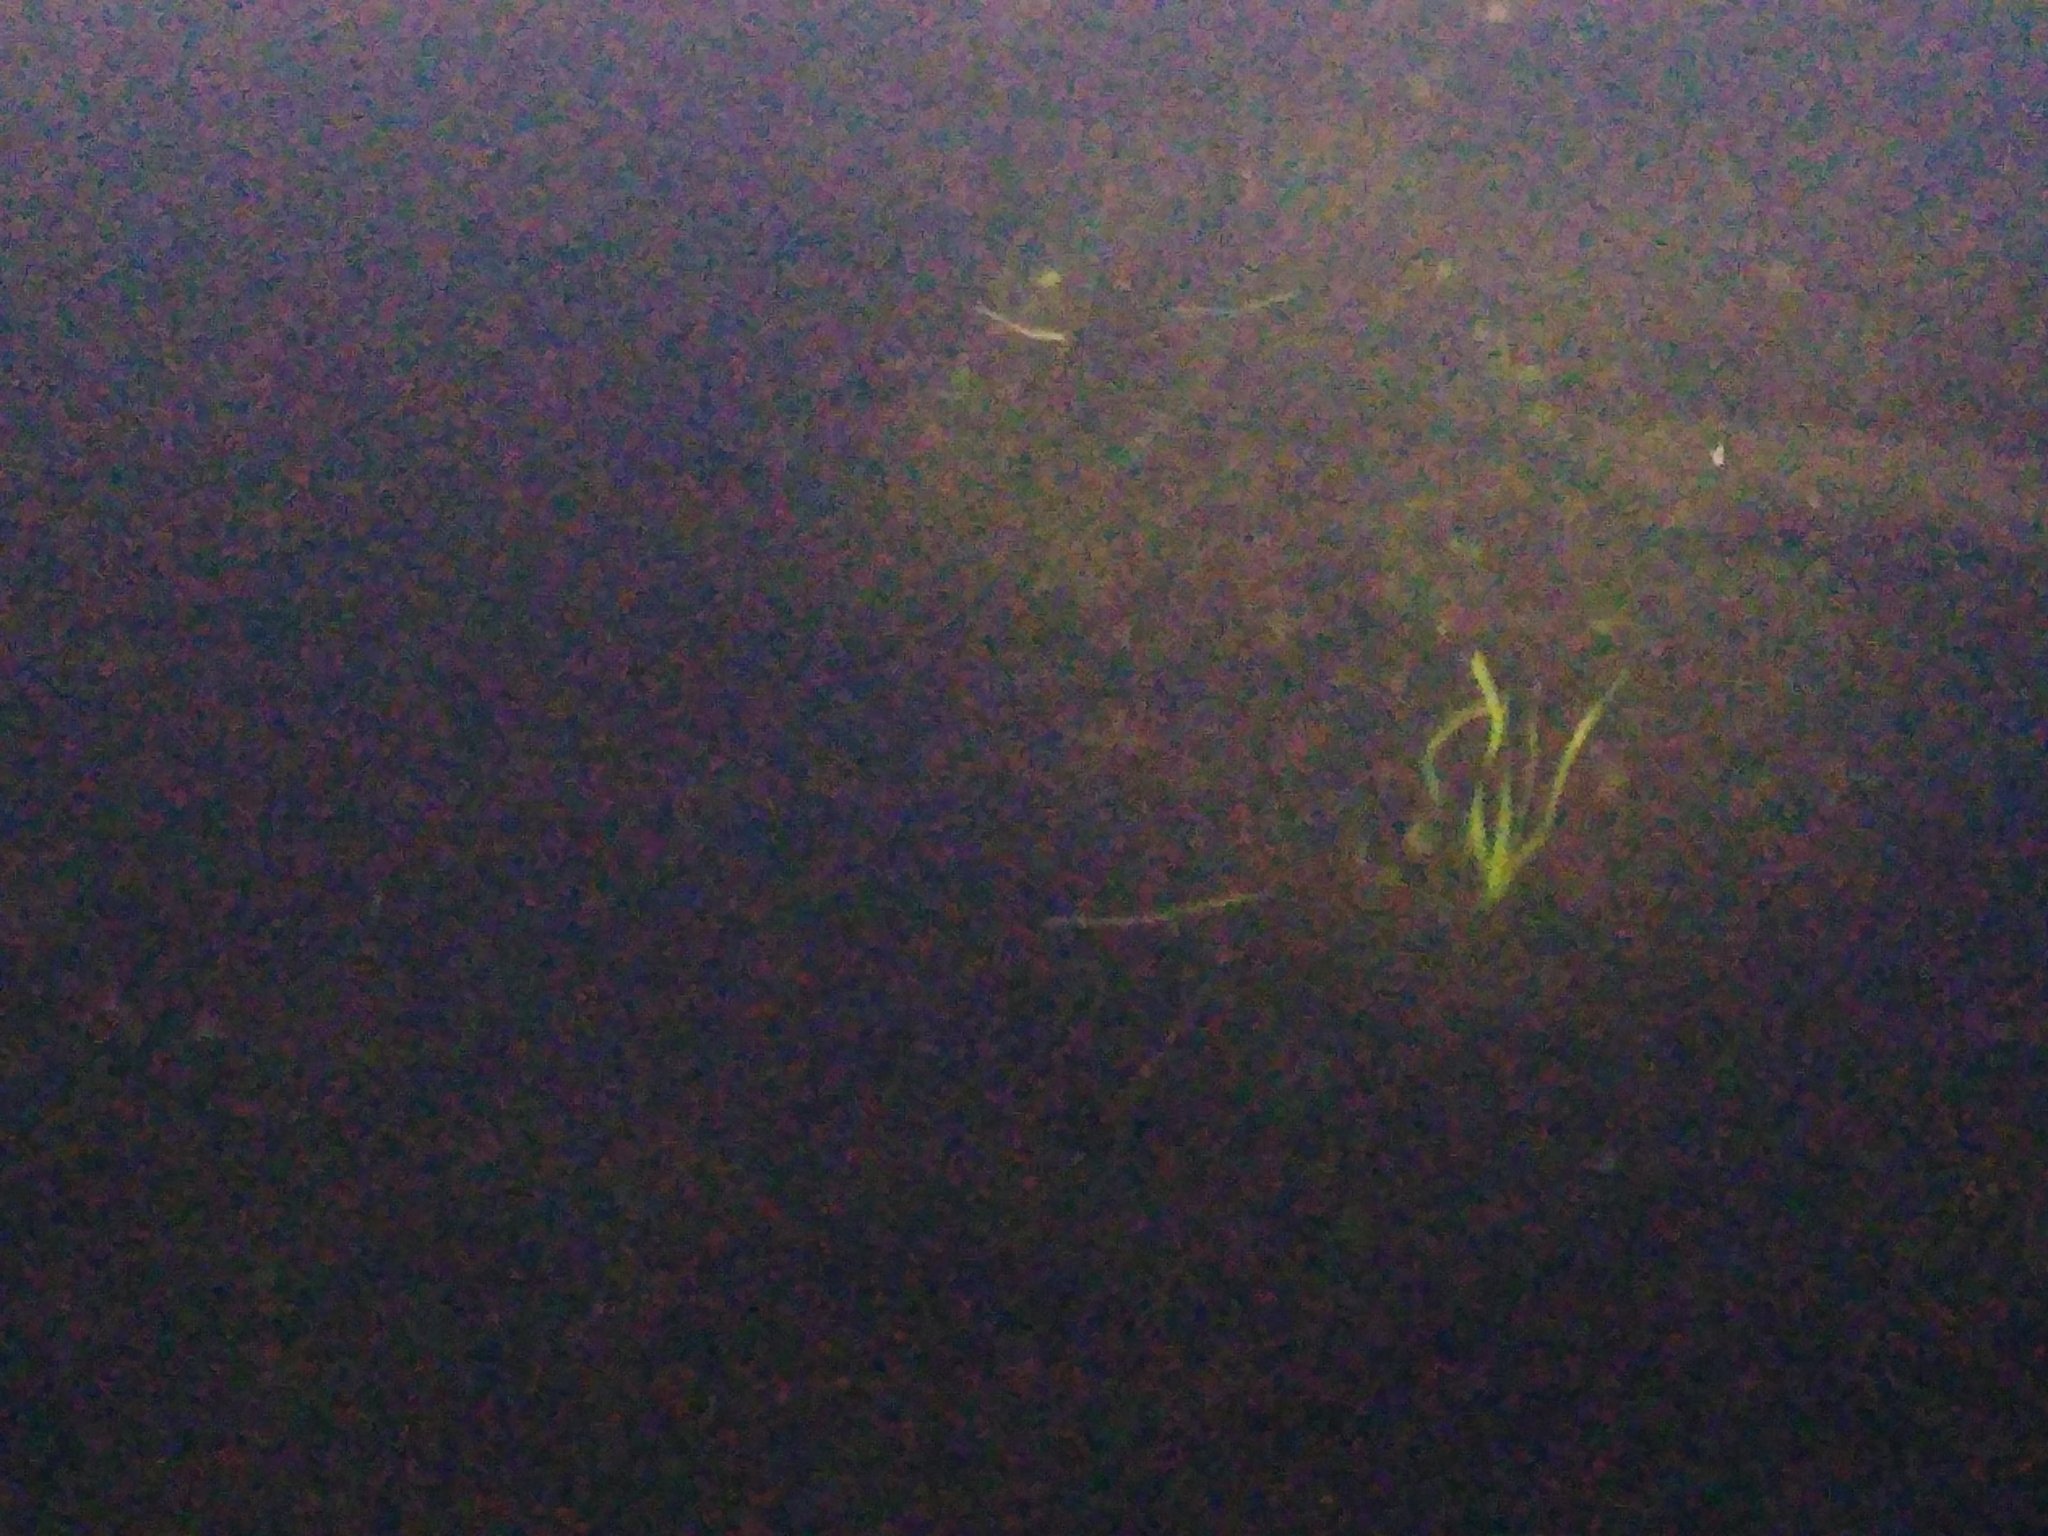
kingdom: Animalia
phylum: Chordata
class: Amphibia
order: Caudata
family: Salamandridae
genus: Notophthalmus
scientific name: Notophthalmus viridescens
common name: Eastern newt
